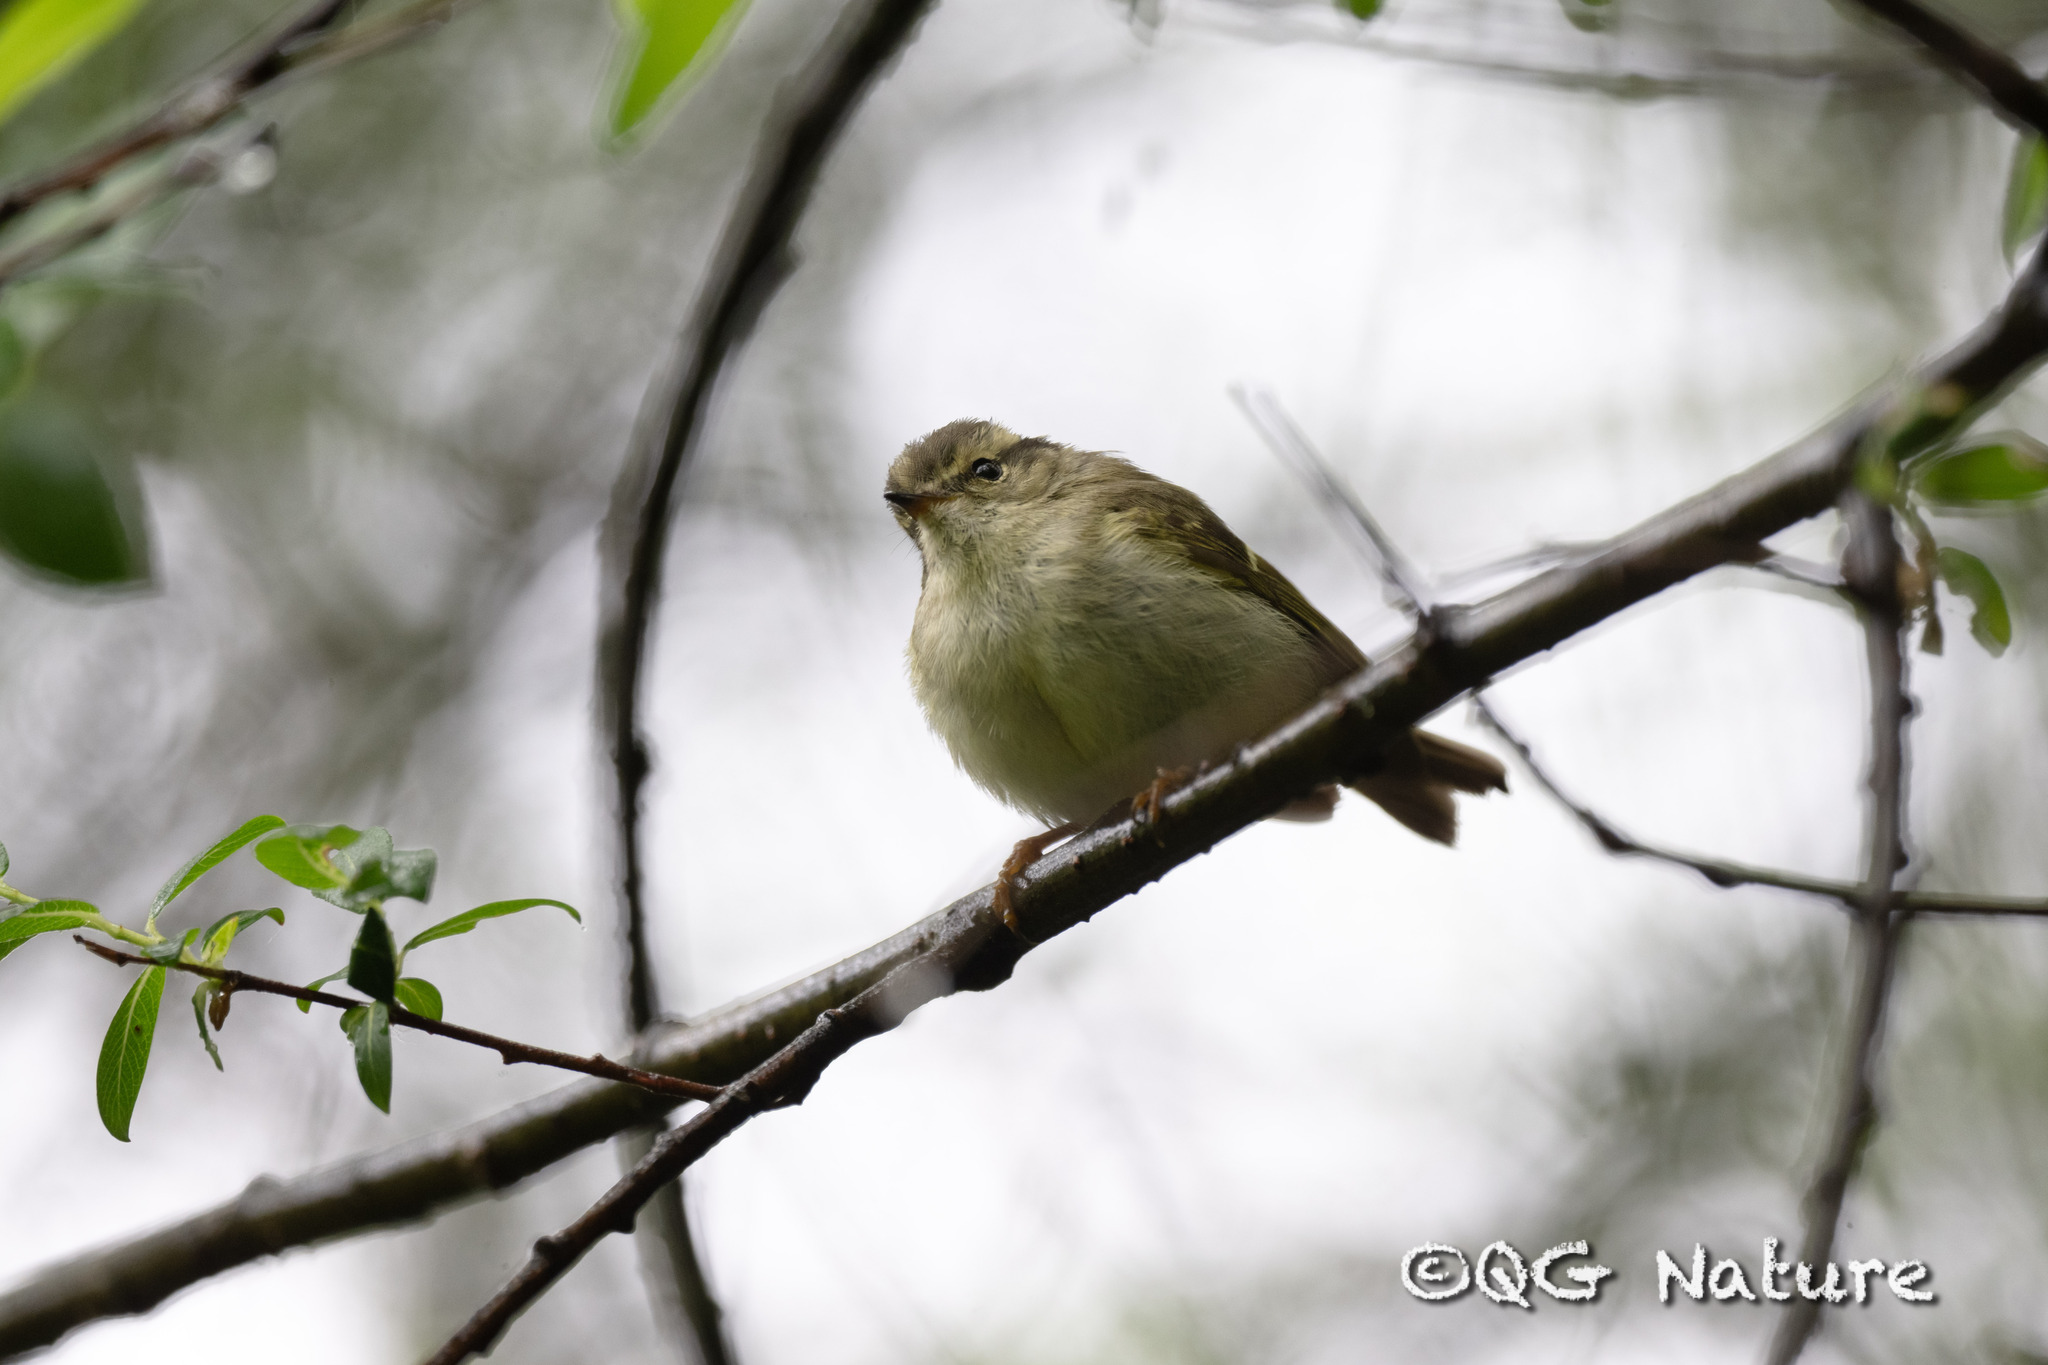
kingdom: Animalia
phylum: Chordata
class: Aves
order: Passeriformes
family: Phylloscopidae
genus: Phylloscopus
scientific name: Phylloscopus forresti
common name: Sichuan leaf warbler
